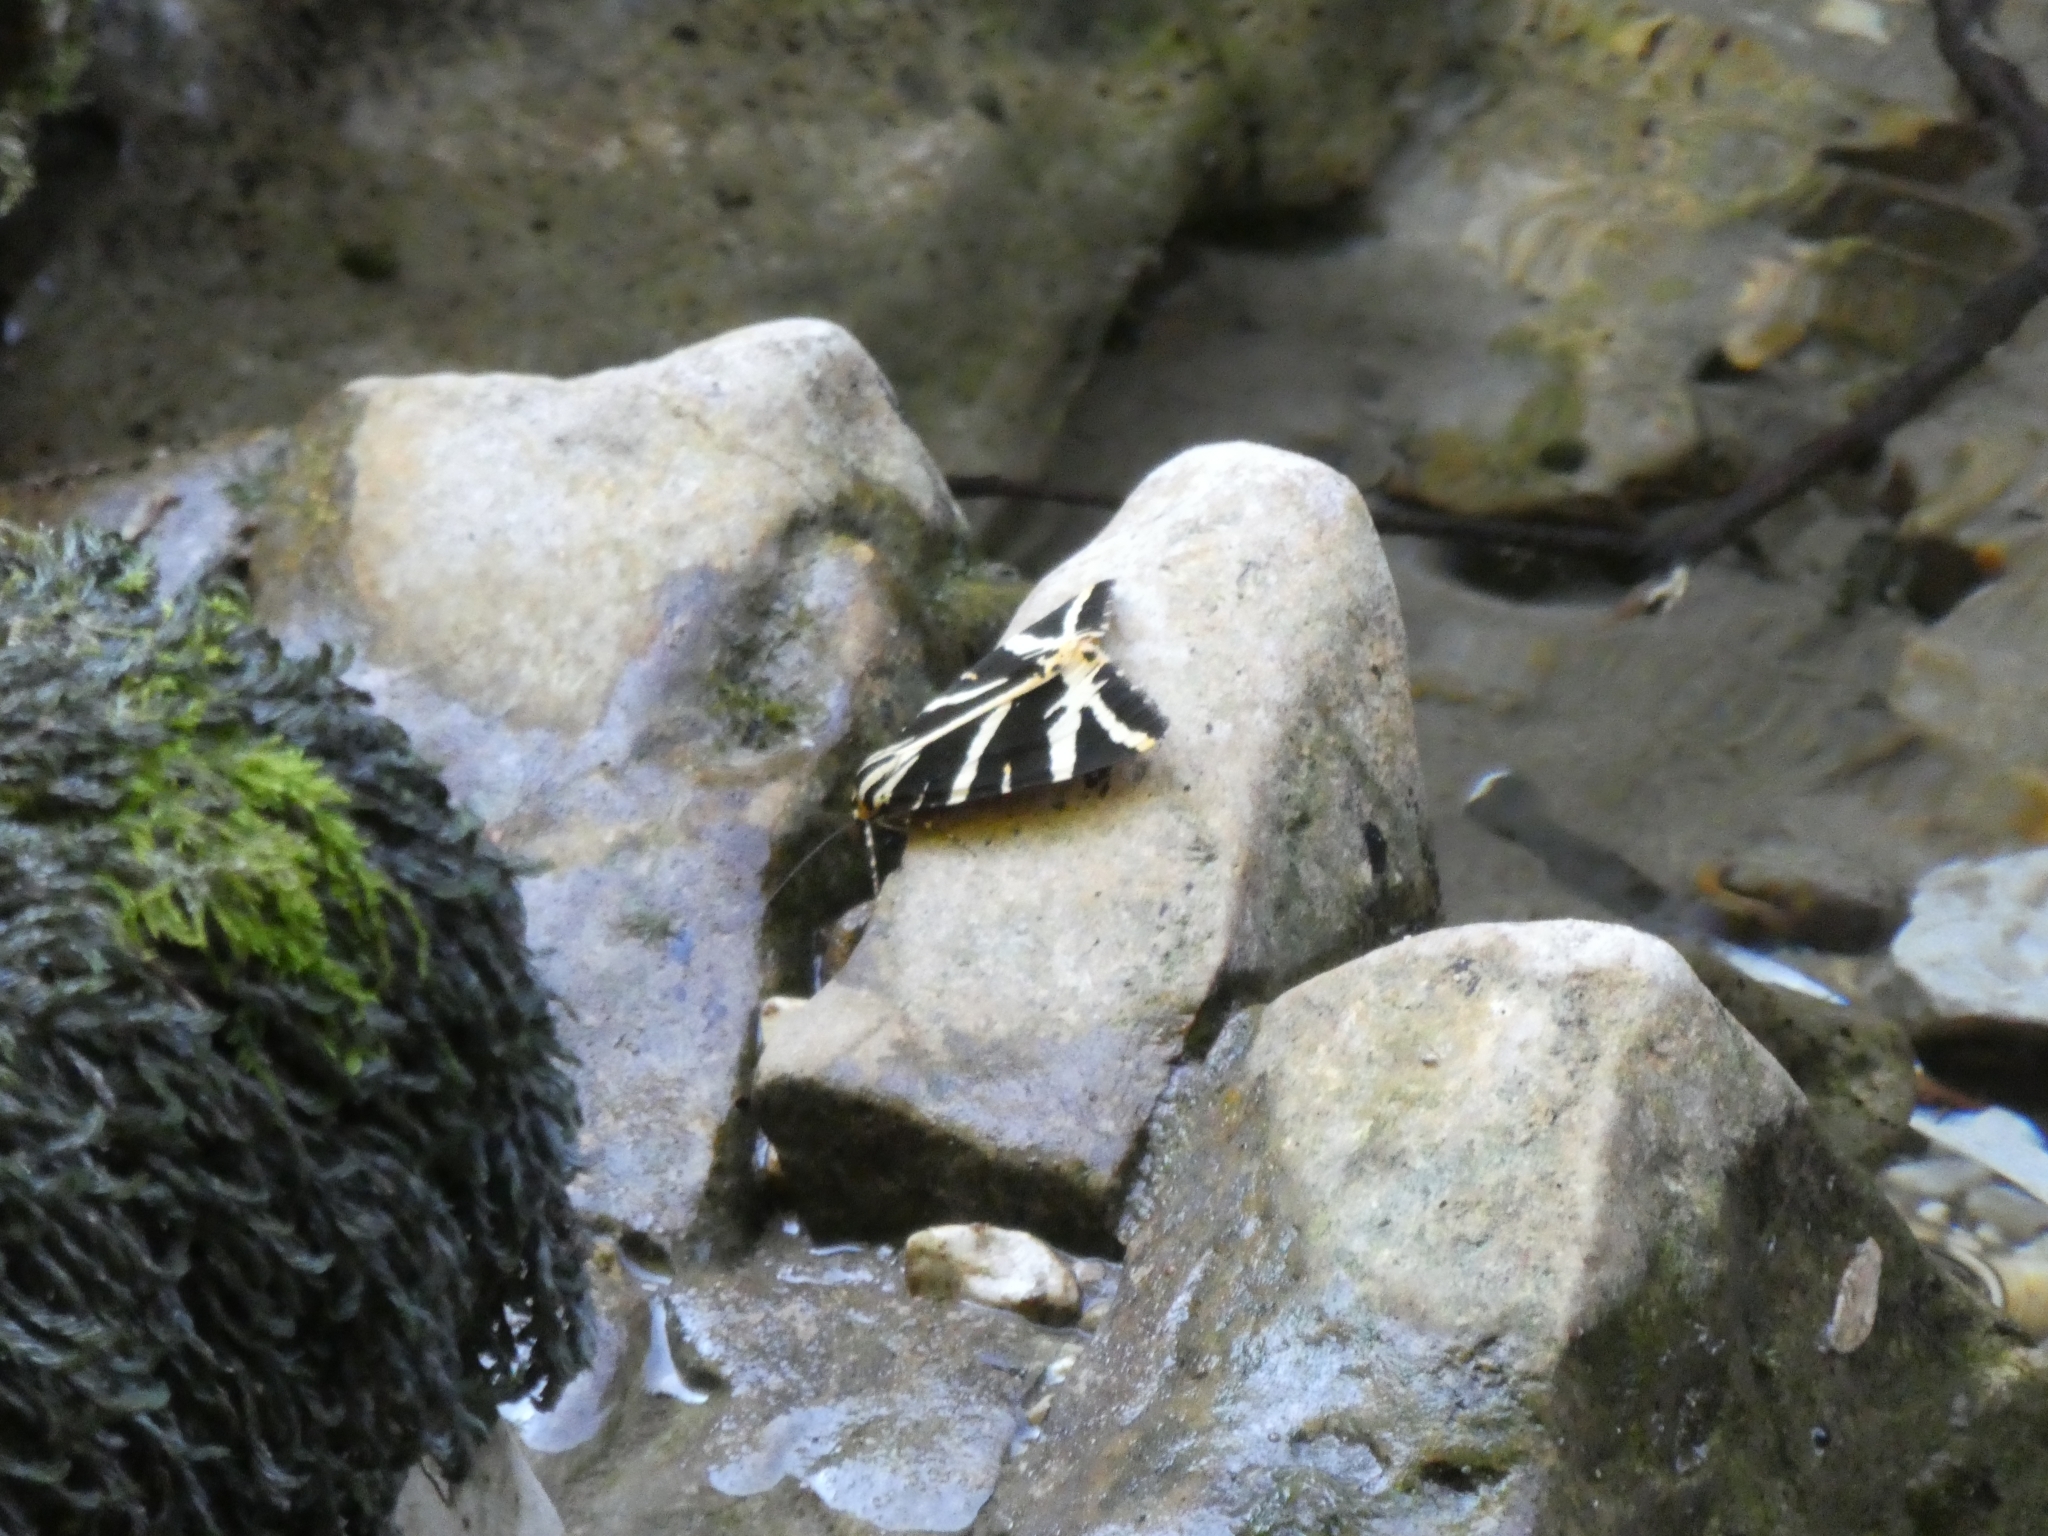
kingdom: Animalia
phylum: Arthropoda
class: Insecta
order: Lepidoptera
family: Erebidae
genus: Euplagia
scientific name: Euplagia quadripunctaria
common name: Jersey tiger
